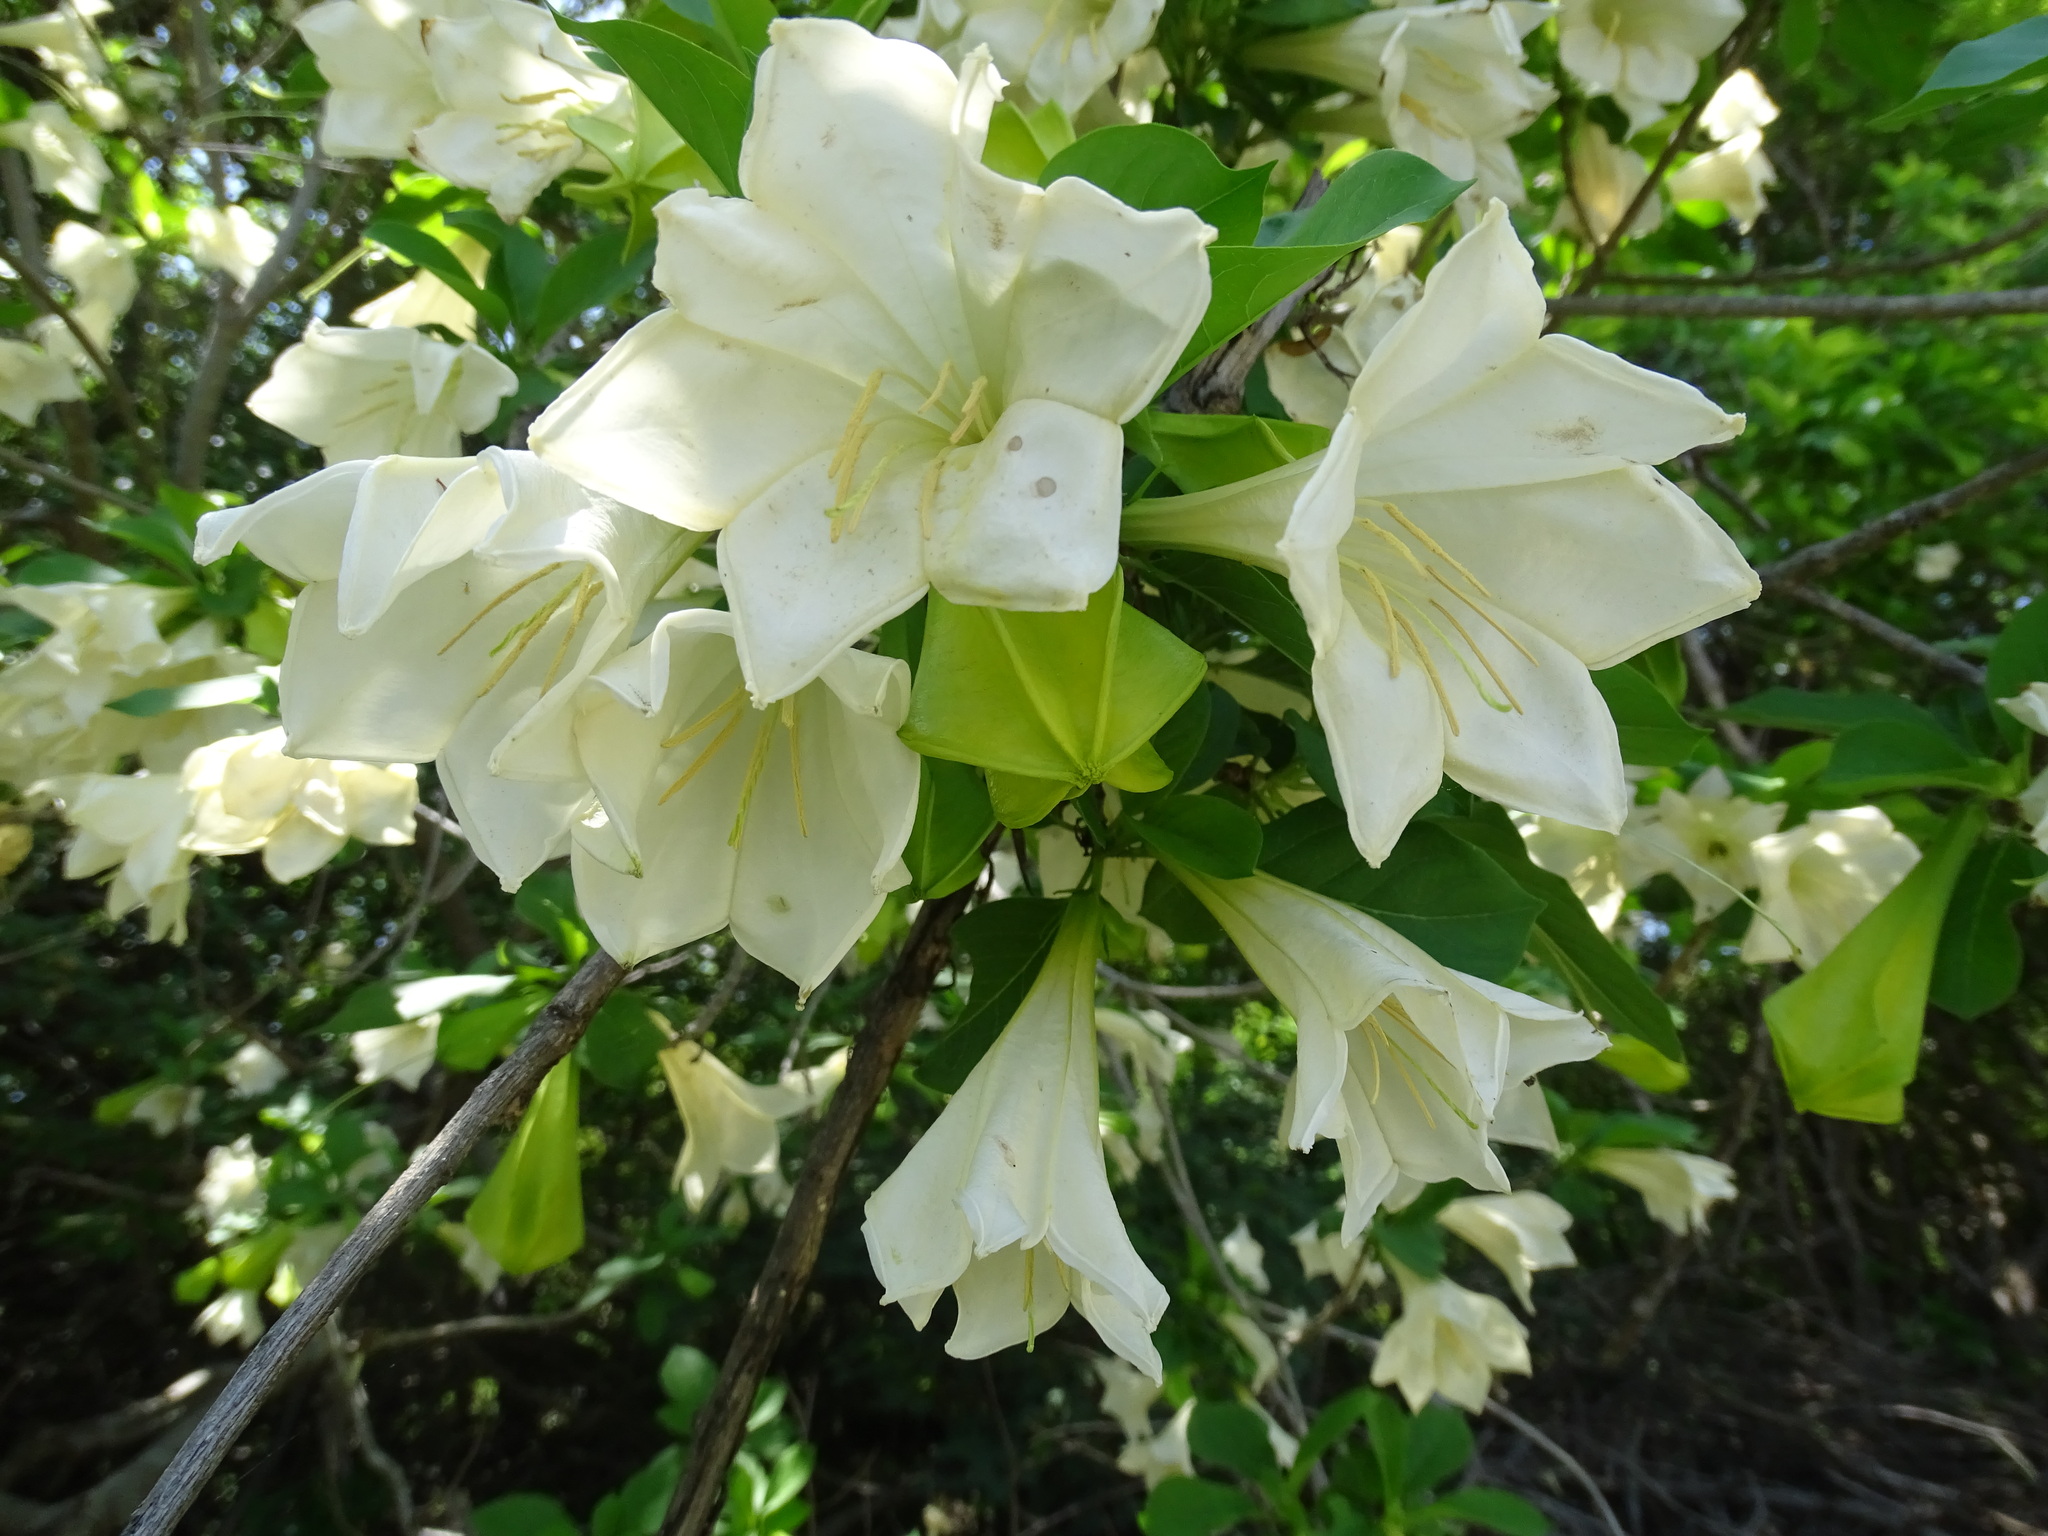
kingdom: Plantae
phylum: Tracheophyta
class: Magnoliopsida
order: Gentianales
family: Rubiaceae
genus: Hintonia
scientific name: Hintonia latiflora
